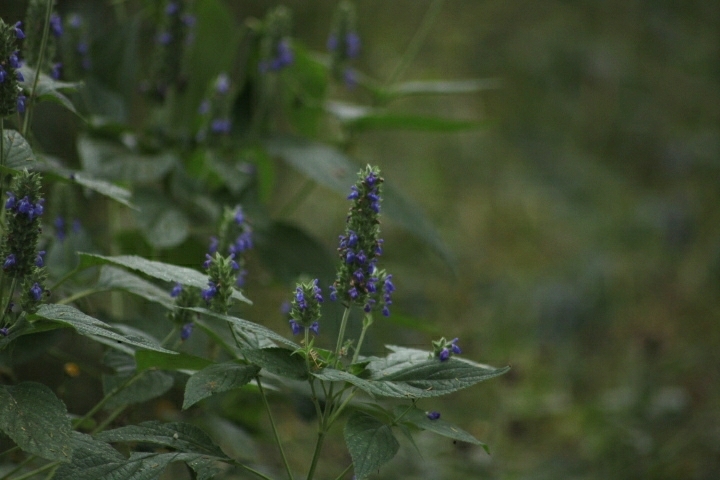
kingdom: Plantae
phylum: Tracheophyta
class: Magnoliopsida
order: Lamiales
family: Lamiaceae
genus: Salvia
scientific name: Salvia hispanica
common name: Chia
